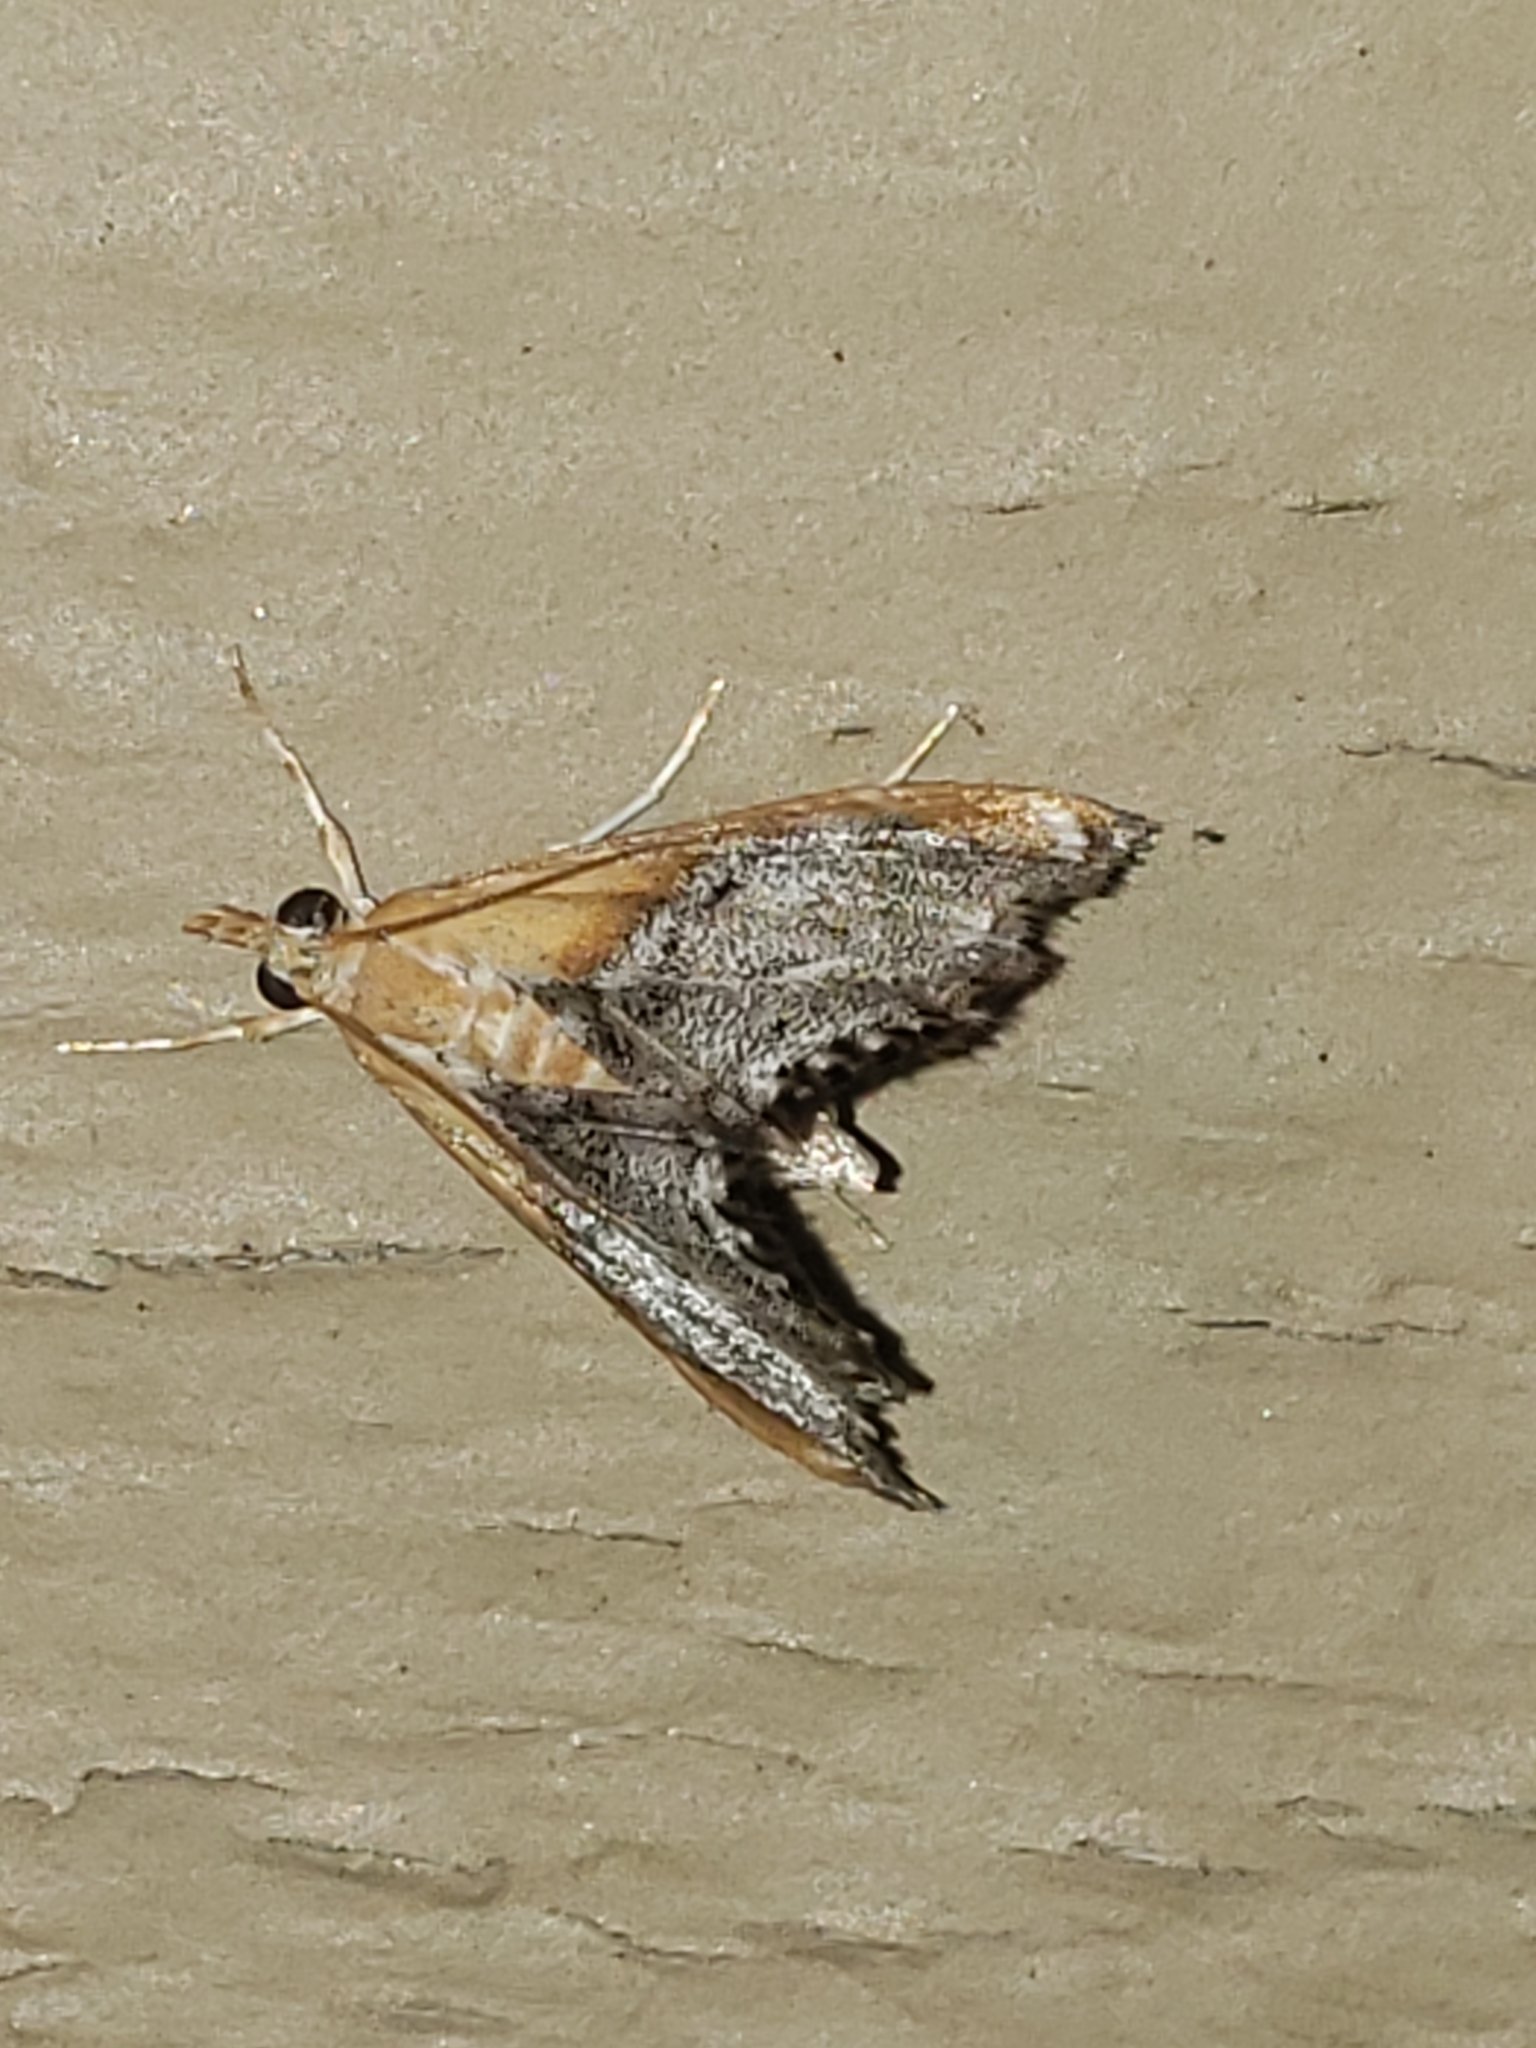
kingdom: Animalia
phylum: Arthropoda
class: Insecta
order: Lepidoptera
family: Crambidae
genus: Chalcoela
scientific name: Chalcoela iphitalis
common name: Sooty-winged chalcoela moth
